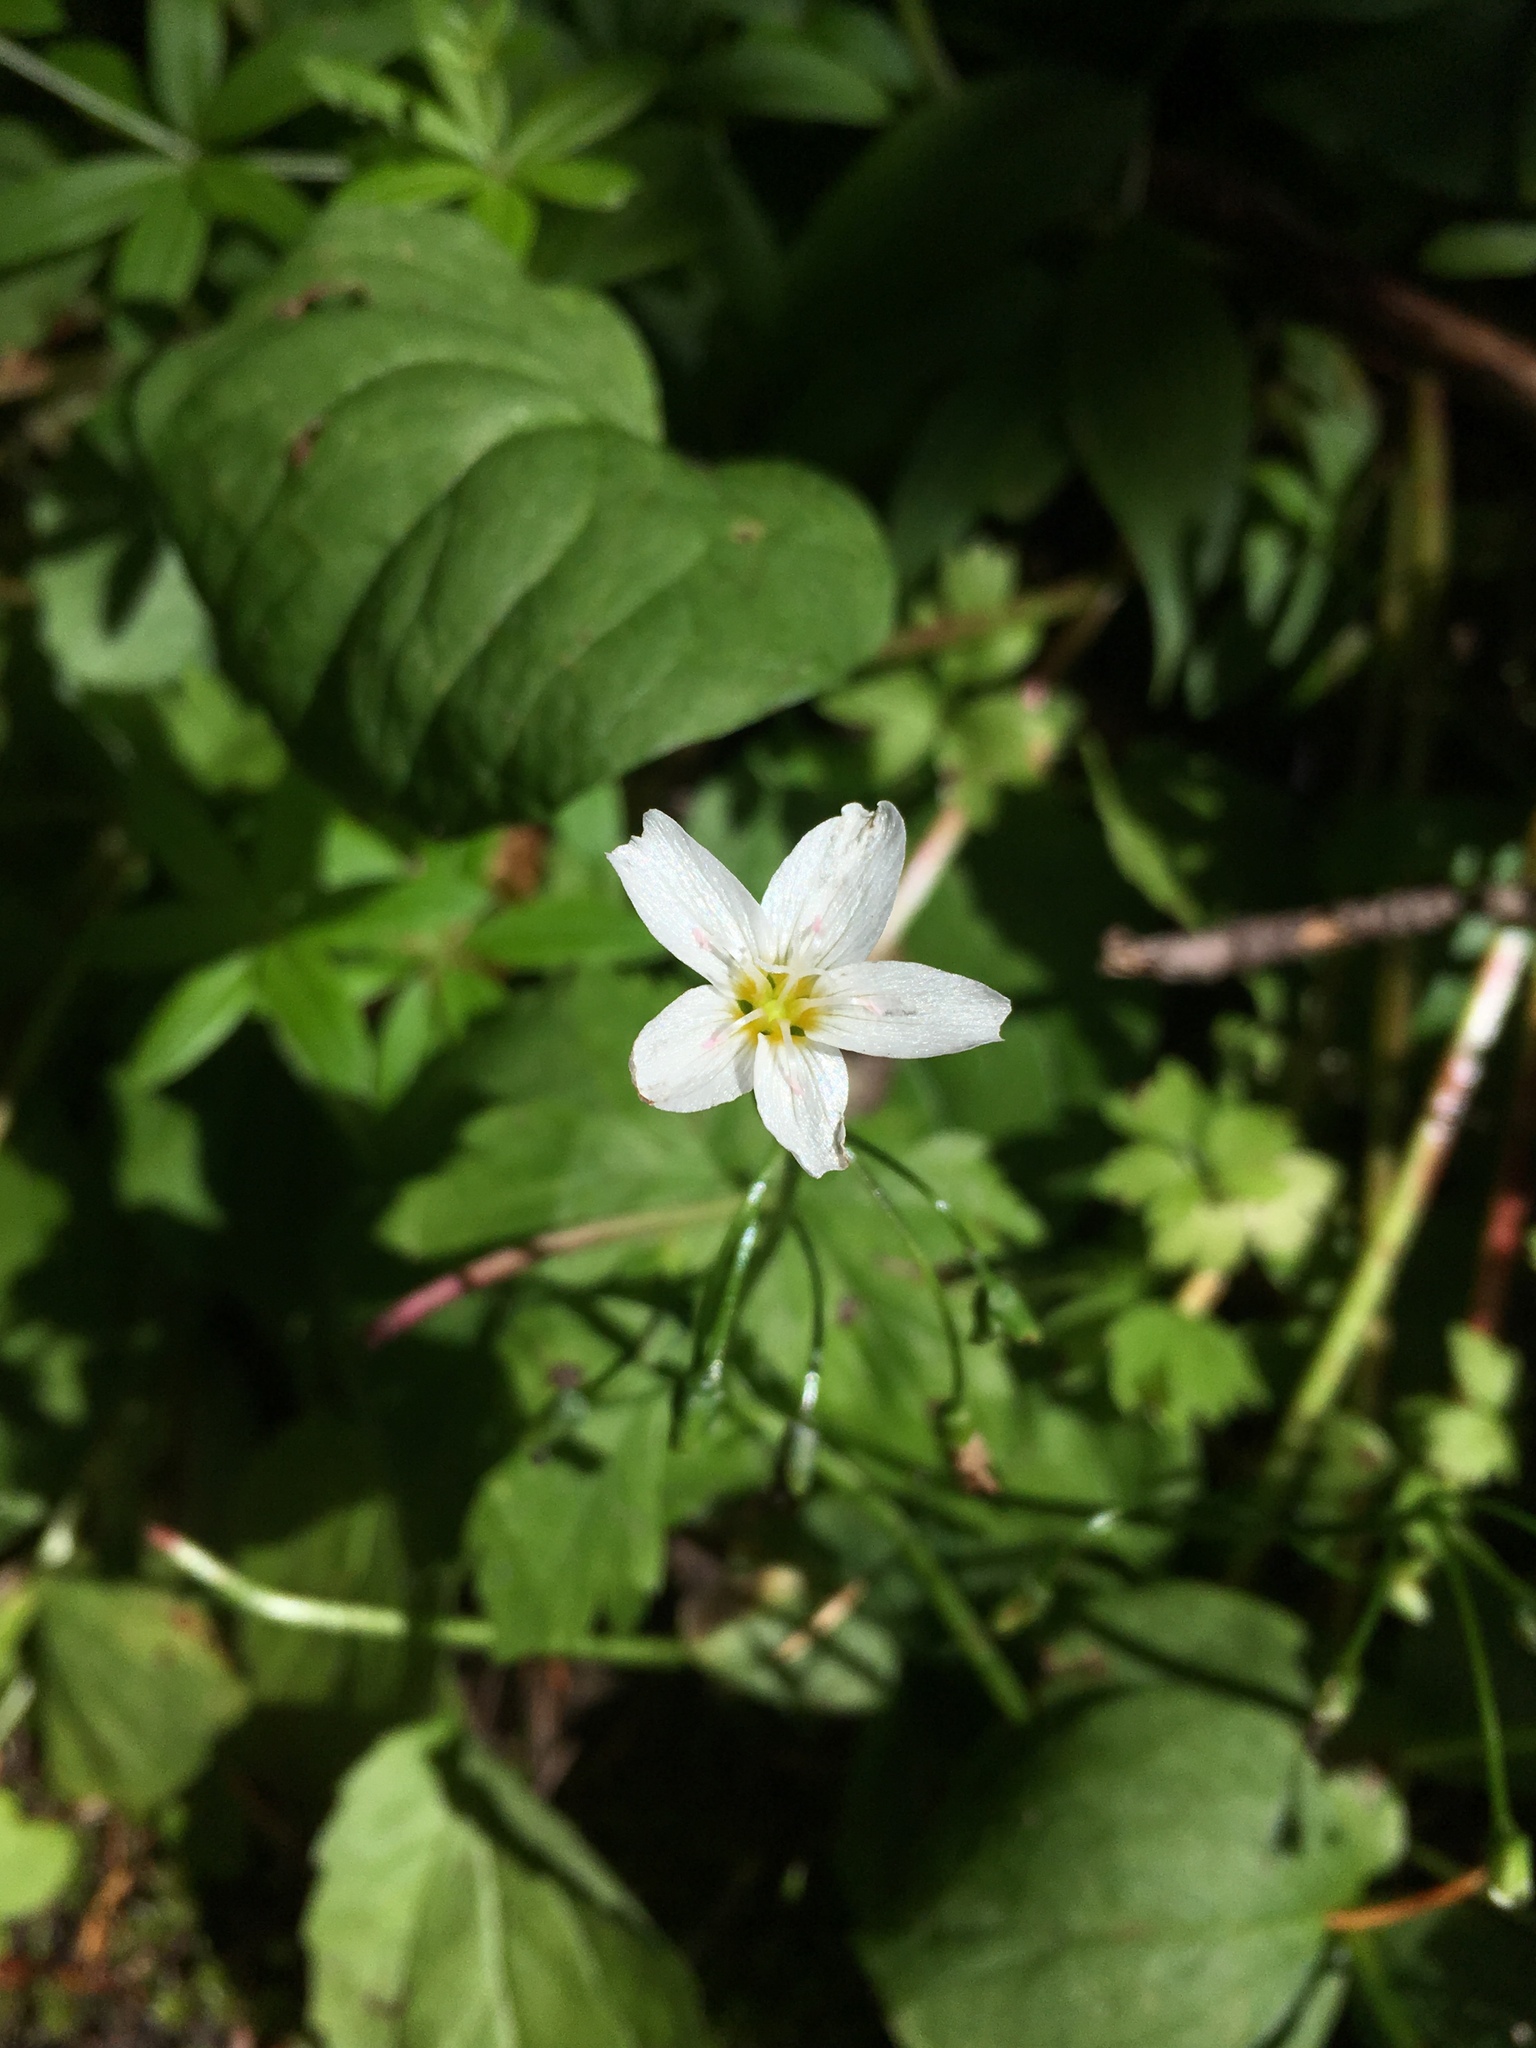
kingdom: Plantae
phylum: Tracheophyta
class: Magnoliopsida
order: Caryophyllales
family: Montiaceae
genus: Claytonia
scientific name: Claytonia cordifolia
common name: Broad-leaved spring beauty
